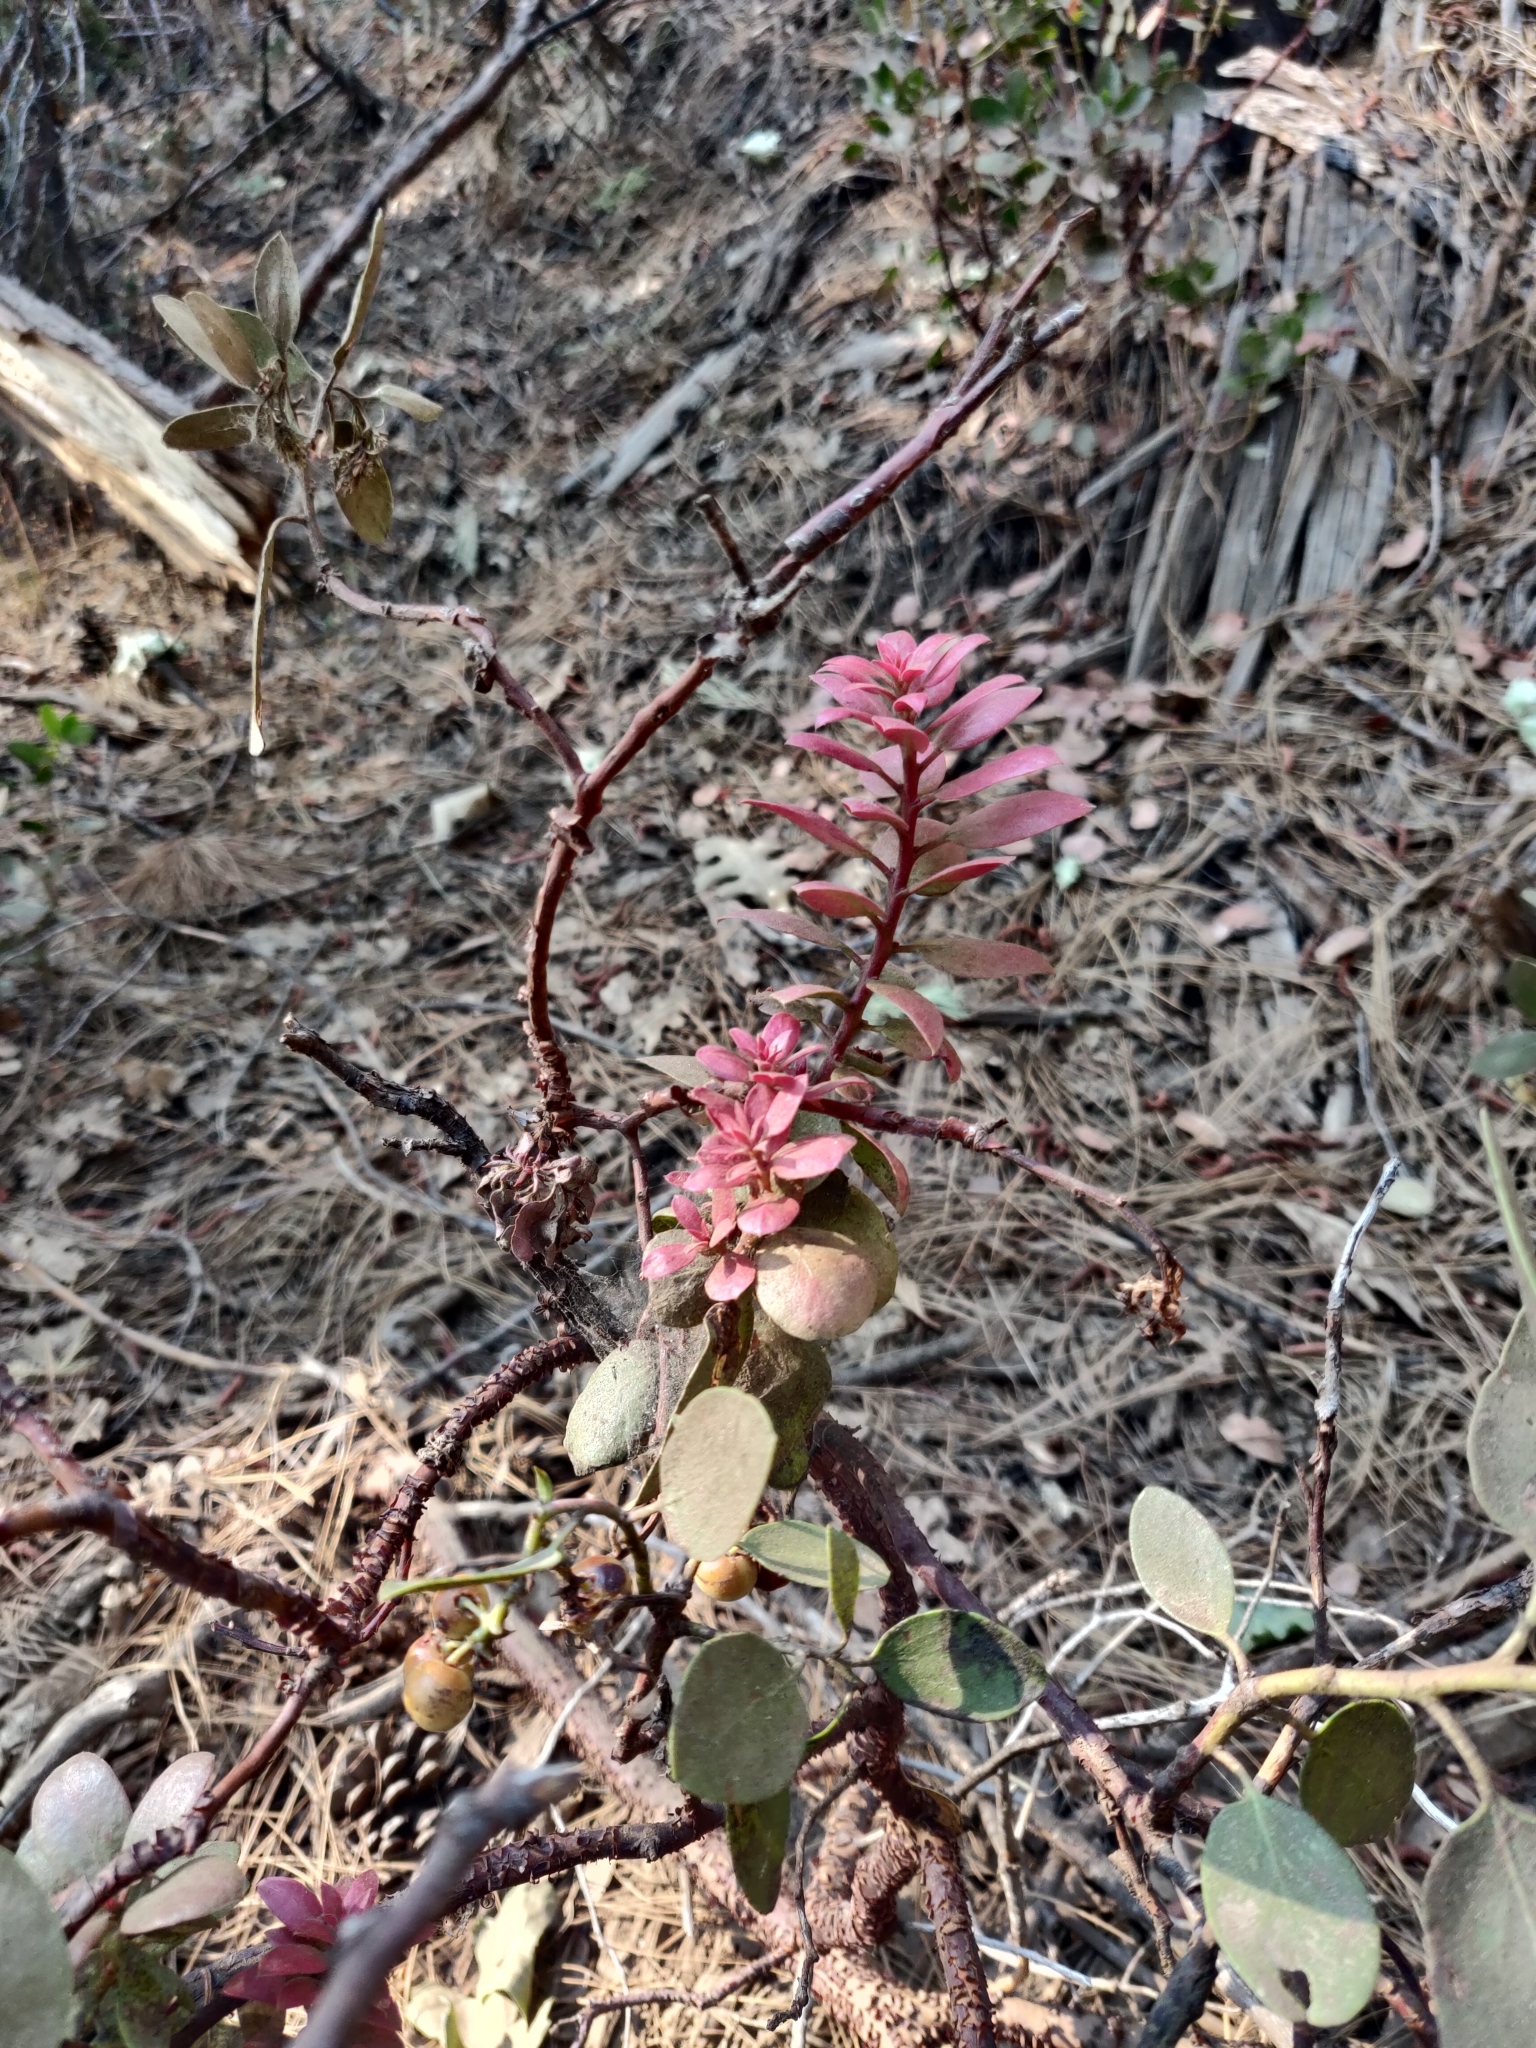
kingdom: Plantae
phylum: Tracheophyta
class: Magnoliopsida
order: Ericales
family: Ericaceae
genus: Arctostaphylos
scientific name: Arctostaphylos viscida
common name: White-leaf manzanita
